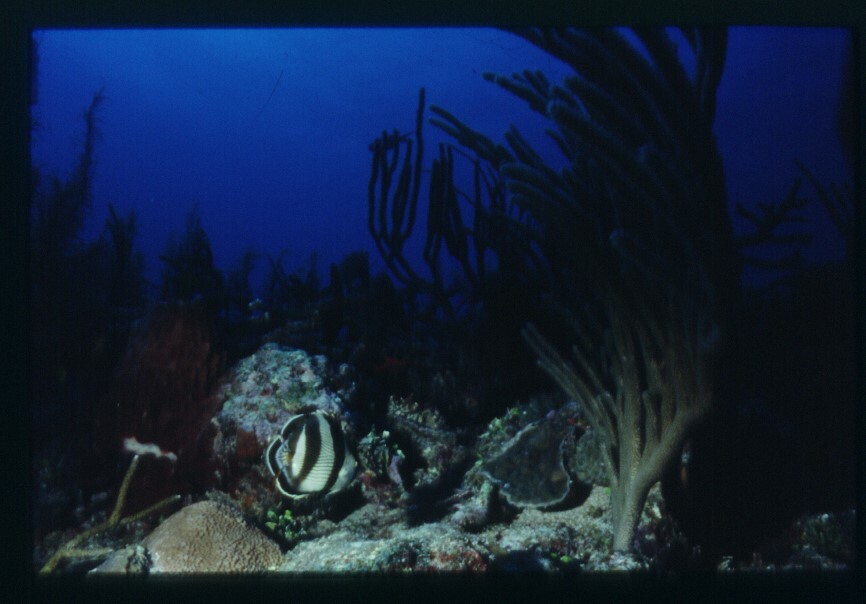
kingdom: Animalia
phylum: Chordata
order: Perciformes
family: Chaetodontidae
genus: Chaetodon
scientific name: Chaetodon striatus
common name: Banded butterflyfish
